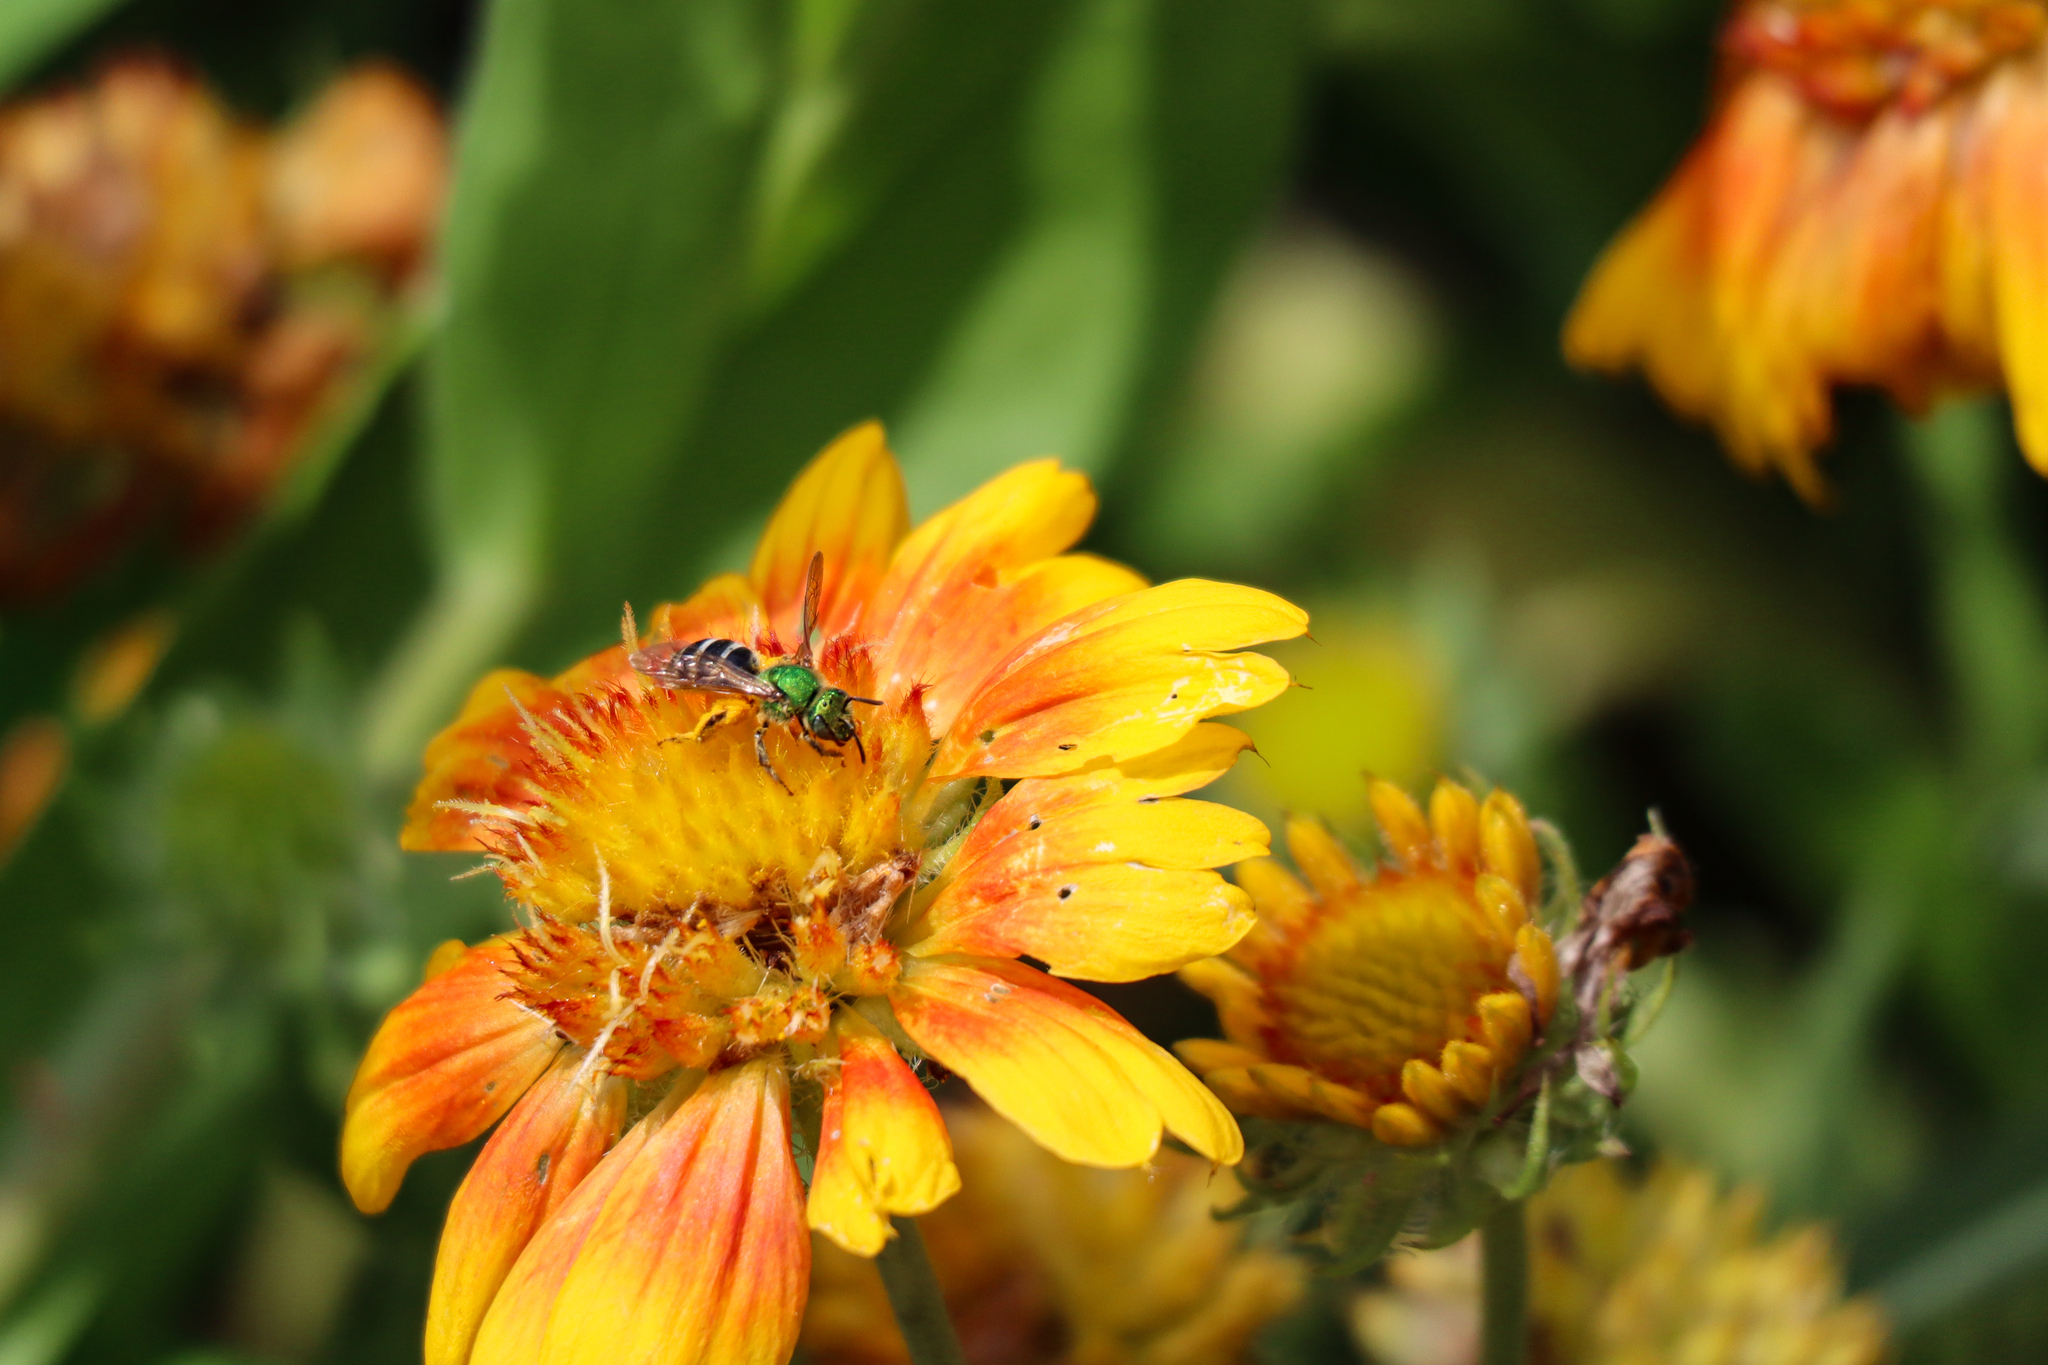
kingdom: Animalia
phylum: Arthropoda
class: Insecta
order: Hymenoptera
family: Halictidae
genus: Agapostemon
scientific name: Agapostemon virescens
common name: Bicolored striped sweat bee
